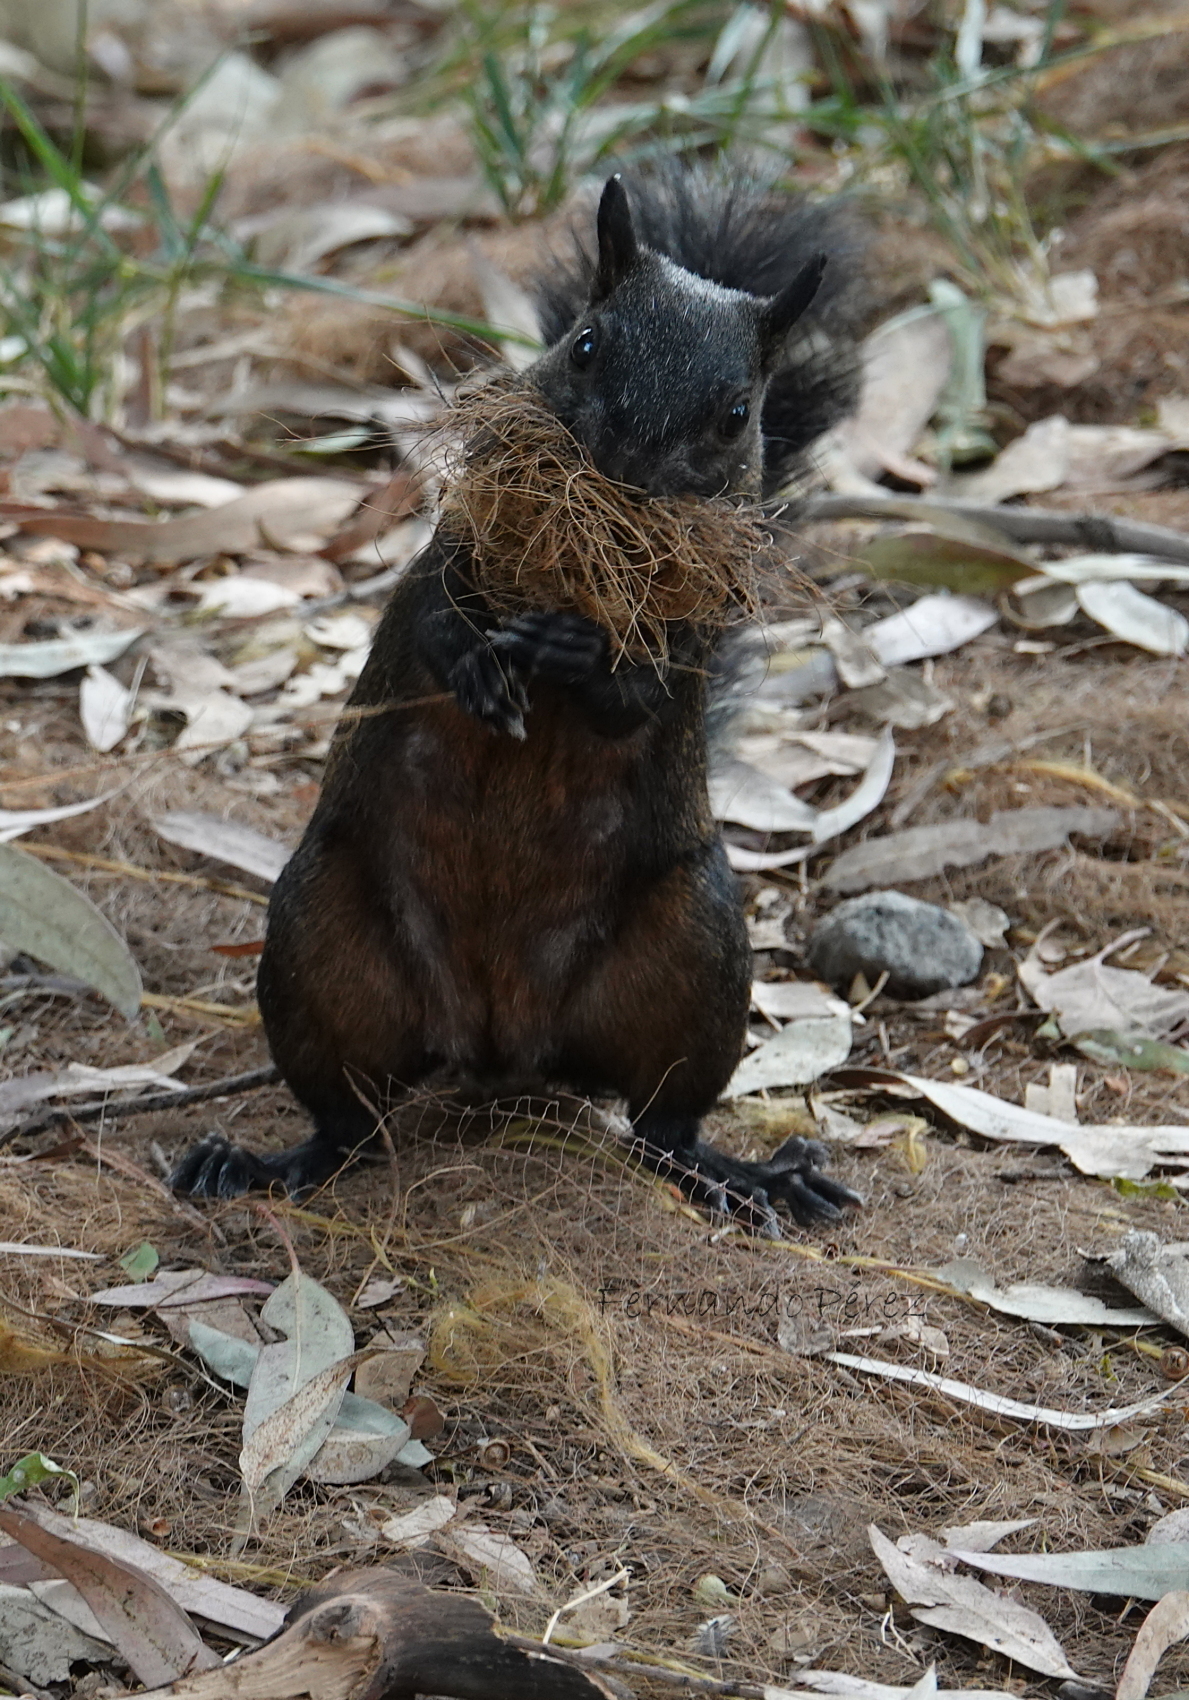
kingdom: Animalia
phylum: Chordata
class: Mammalia
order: Rodentia
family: Sciuridae
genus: Sciurus
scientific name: Sciurus aureogaster
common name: Red-bellied squirrel
